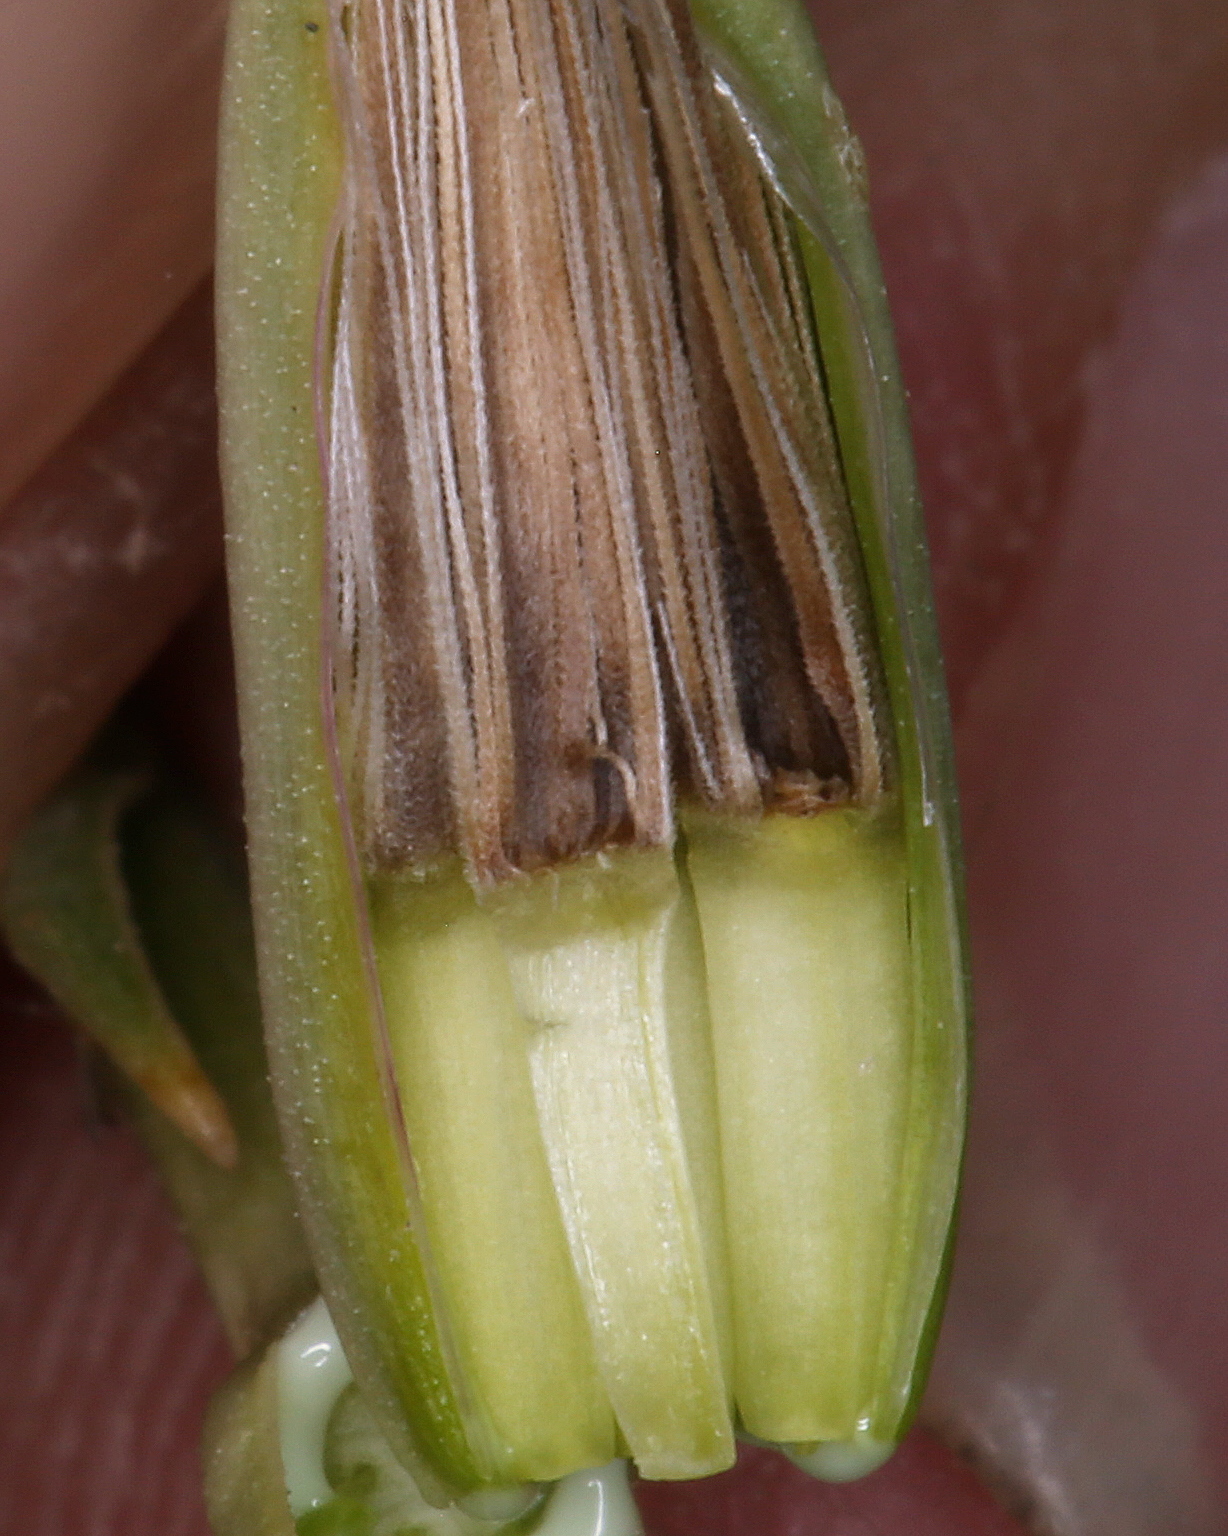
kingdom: Plantae
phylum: Tracheophyta
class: Magnoliopsida
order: Asterales
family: Asteraceae
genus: Chaetadelpha
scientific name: Chaetadelpha wheeleri
